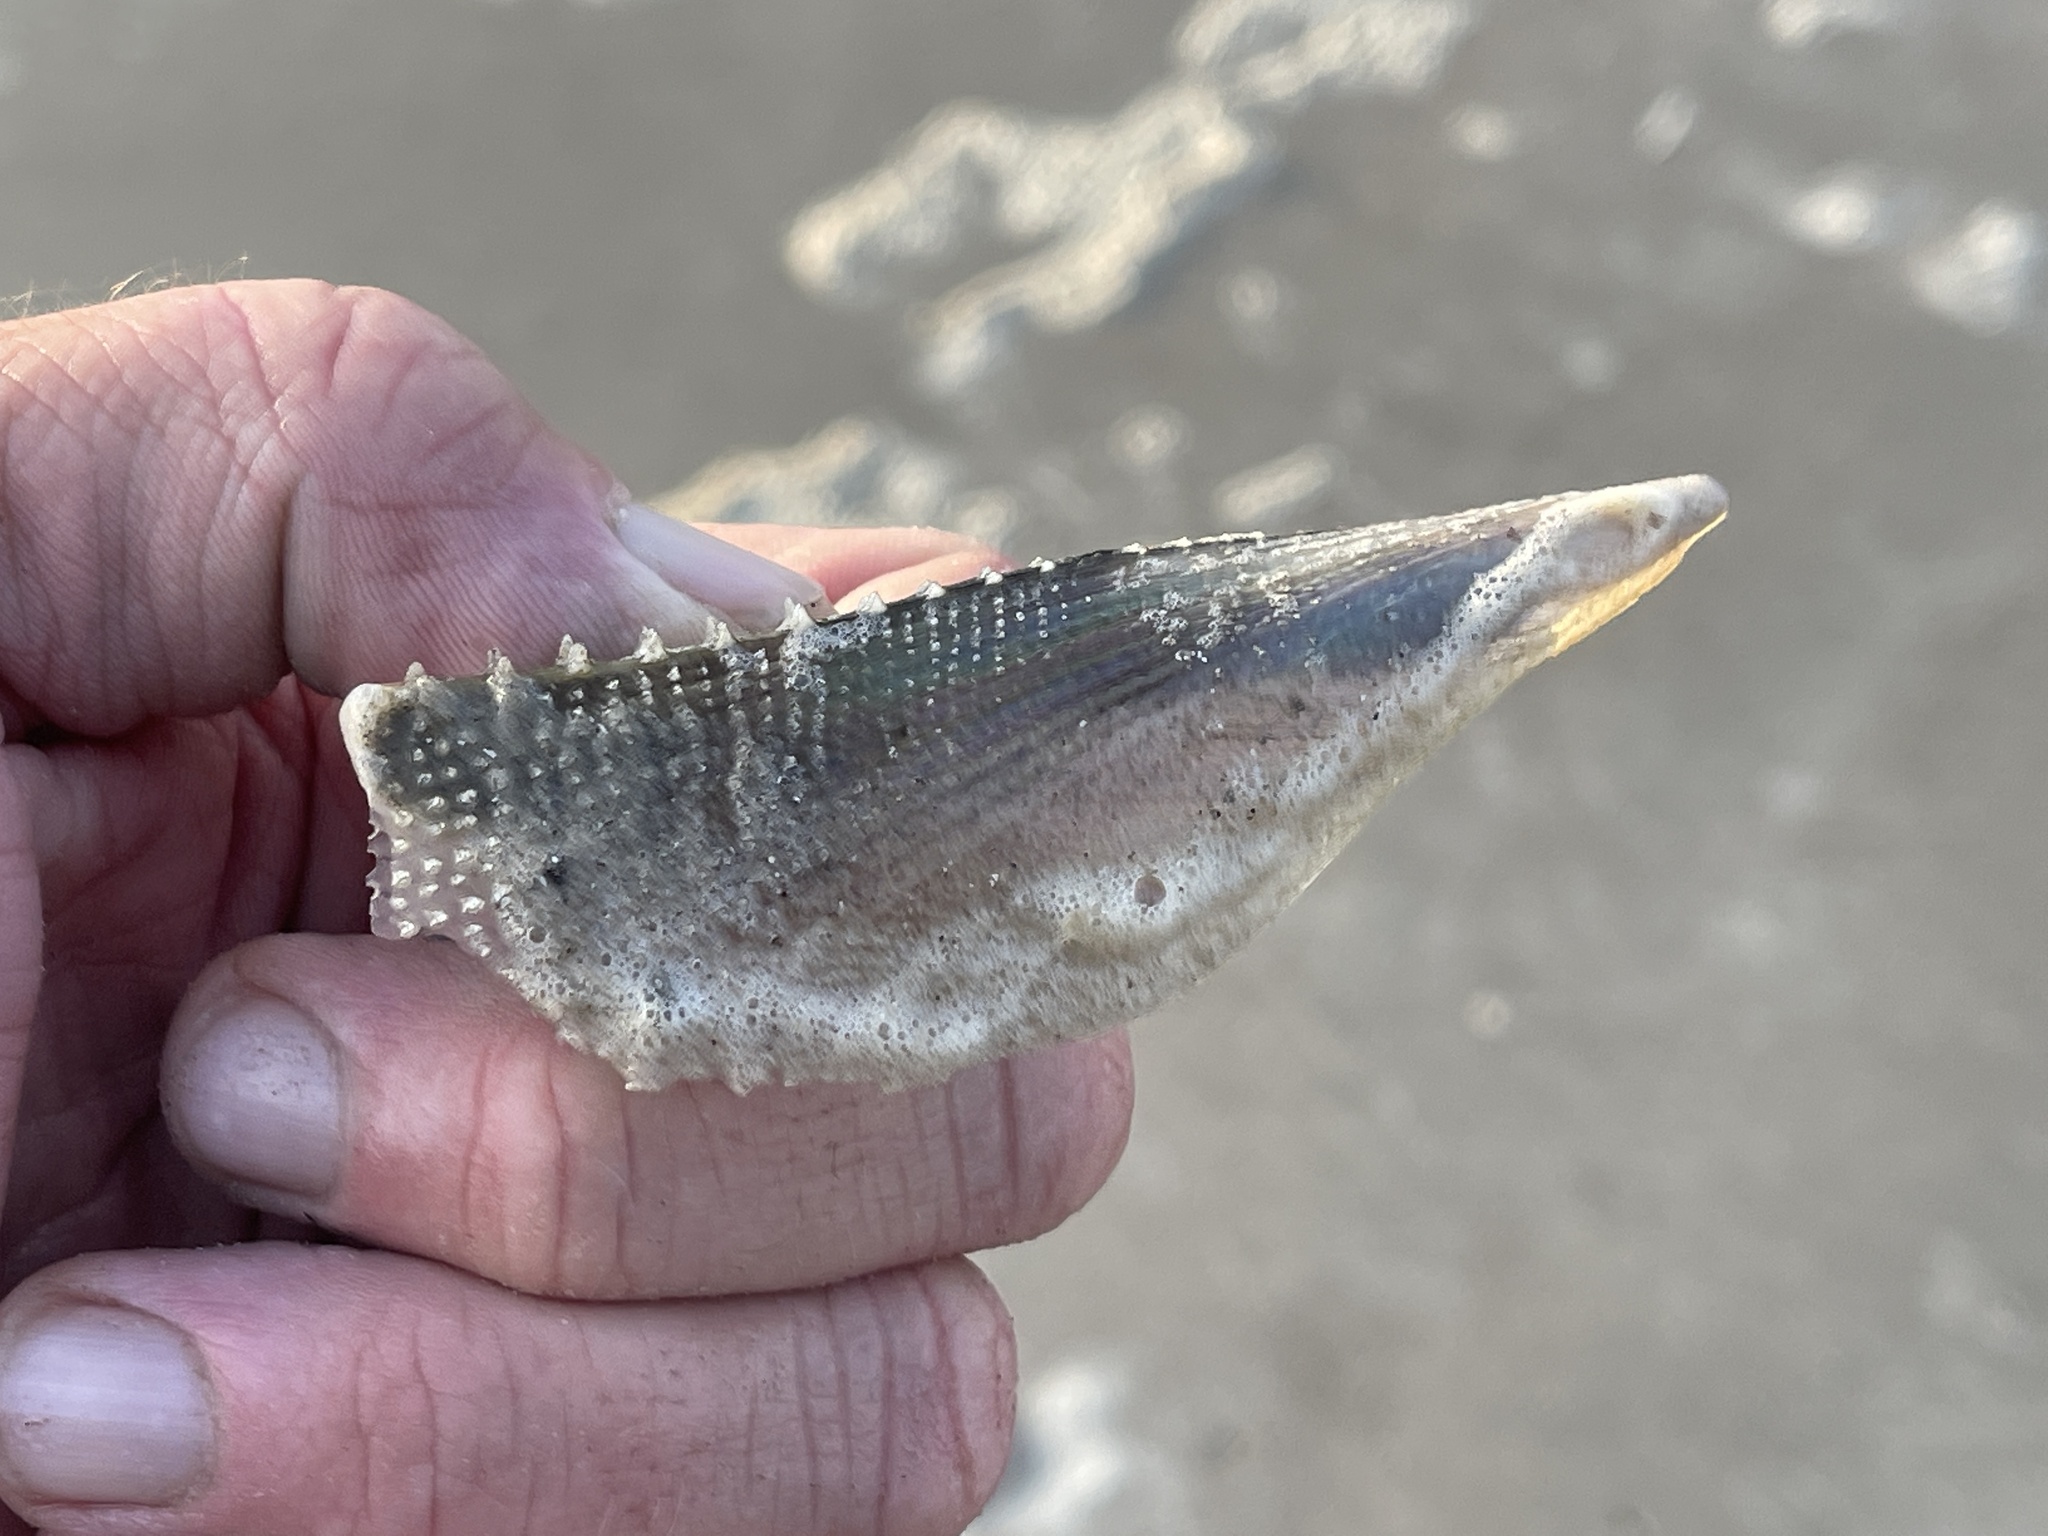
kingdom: Animalia
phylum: Mollusca
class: Bivalvia
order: Ostreida
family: Pinnidae
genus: Atrina
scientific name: Atrina serrata
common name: Saw-toothed penshell
